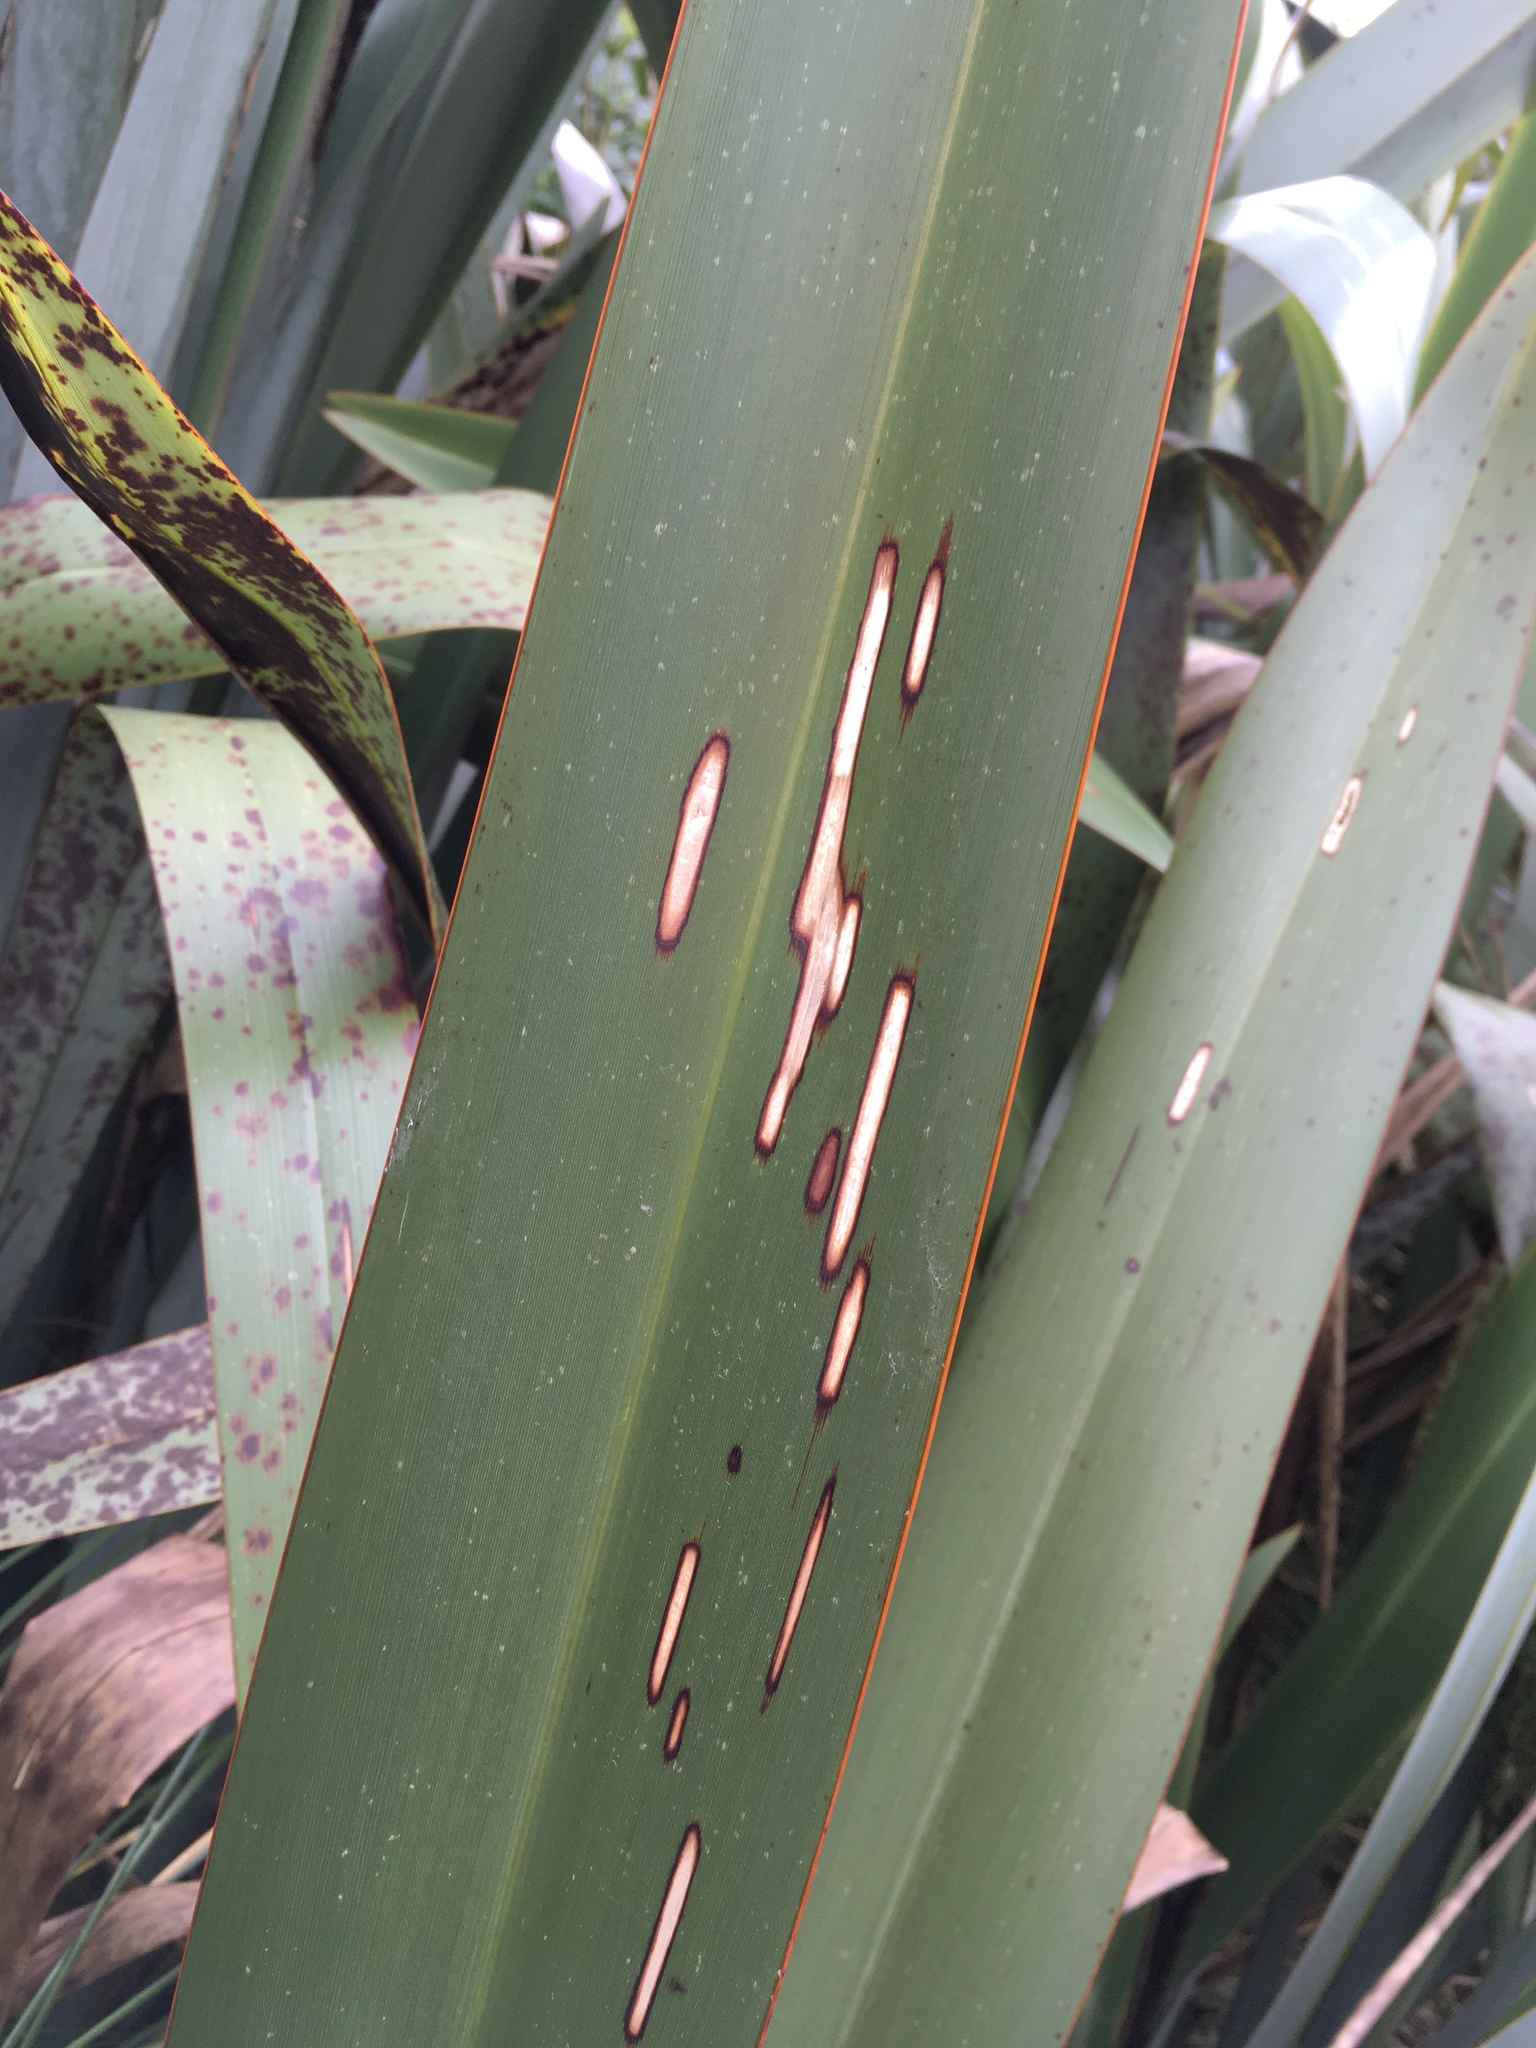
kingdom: Animalia
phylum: Arthropoda
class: Insecta
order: Lepidoptera
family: Geometridae
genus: Orthoclydon
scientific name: Orthoclydon praefectata
